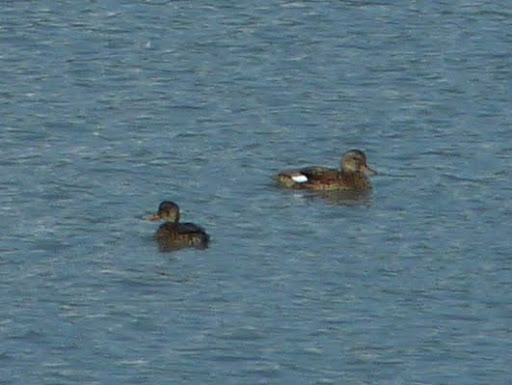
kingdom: Animalia
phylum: Chordata
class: Aves
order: Anseriformes
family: Anatidae
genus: Mareca
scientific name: Mareca strepera
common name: Gadwall
